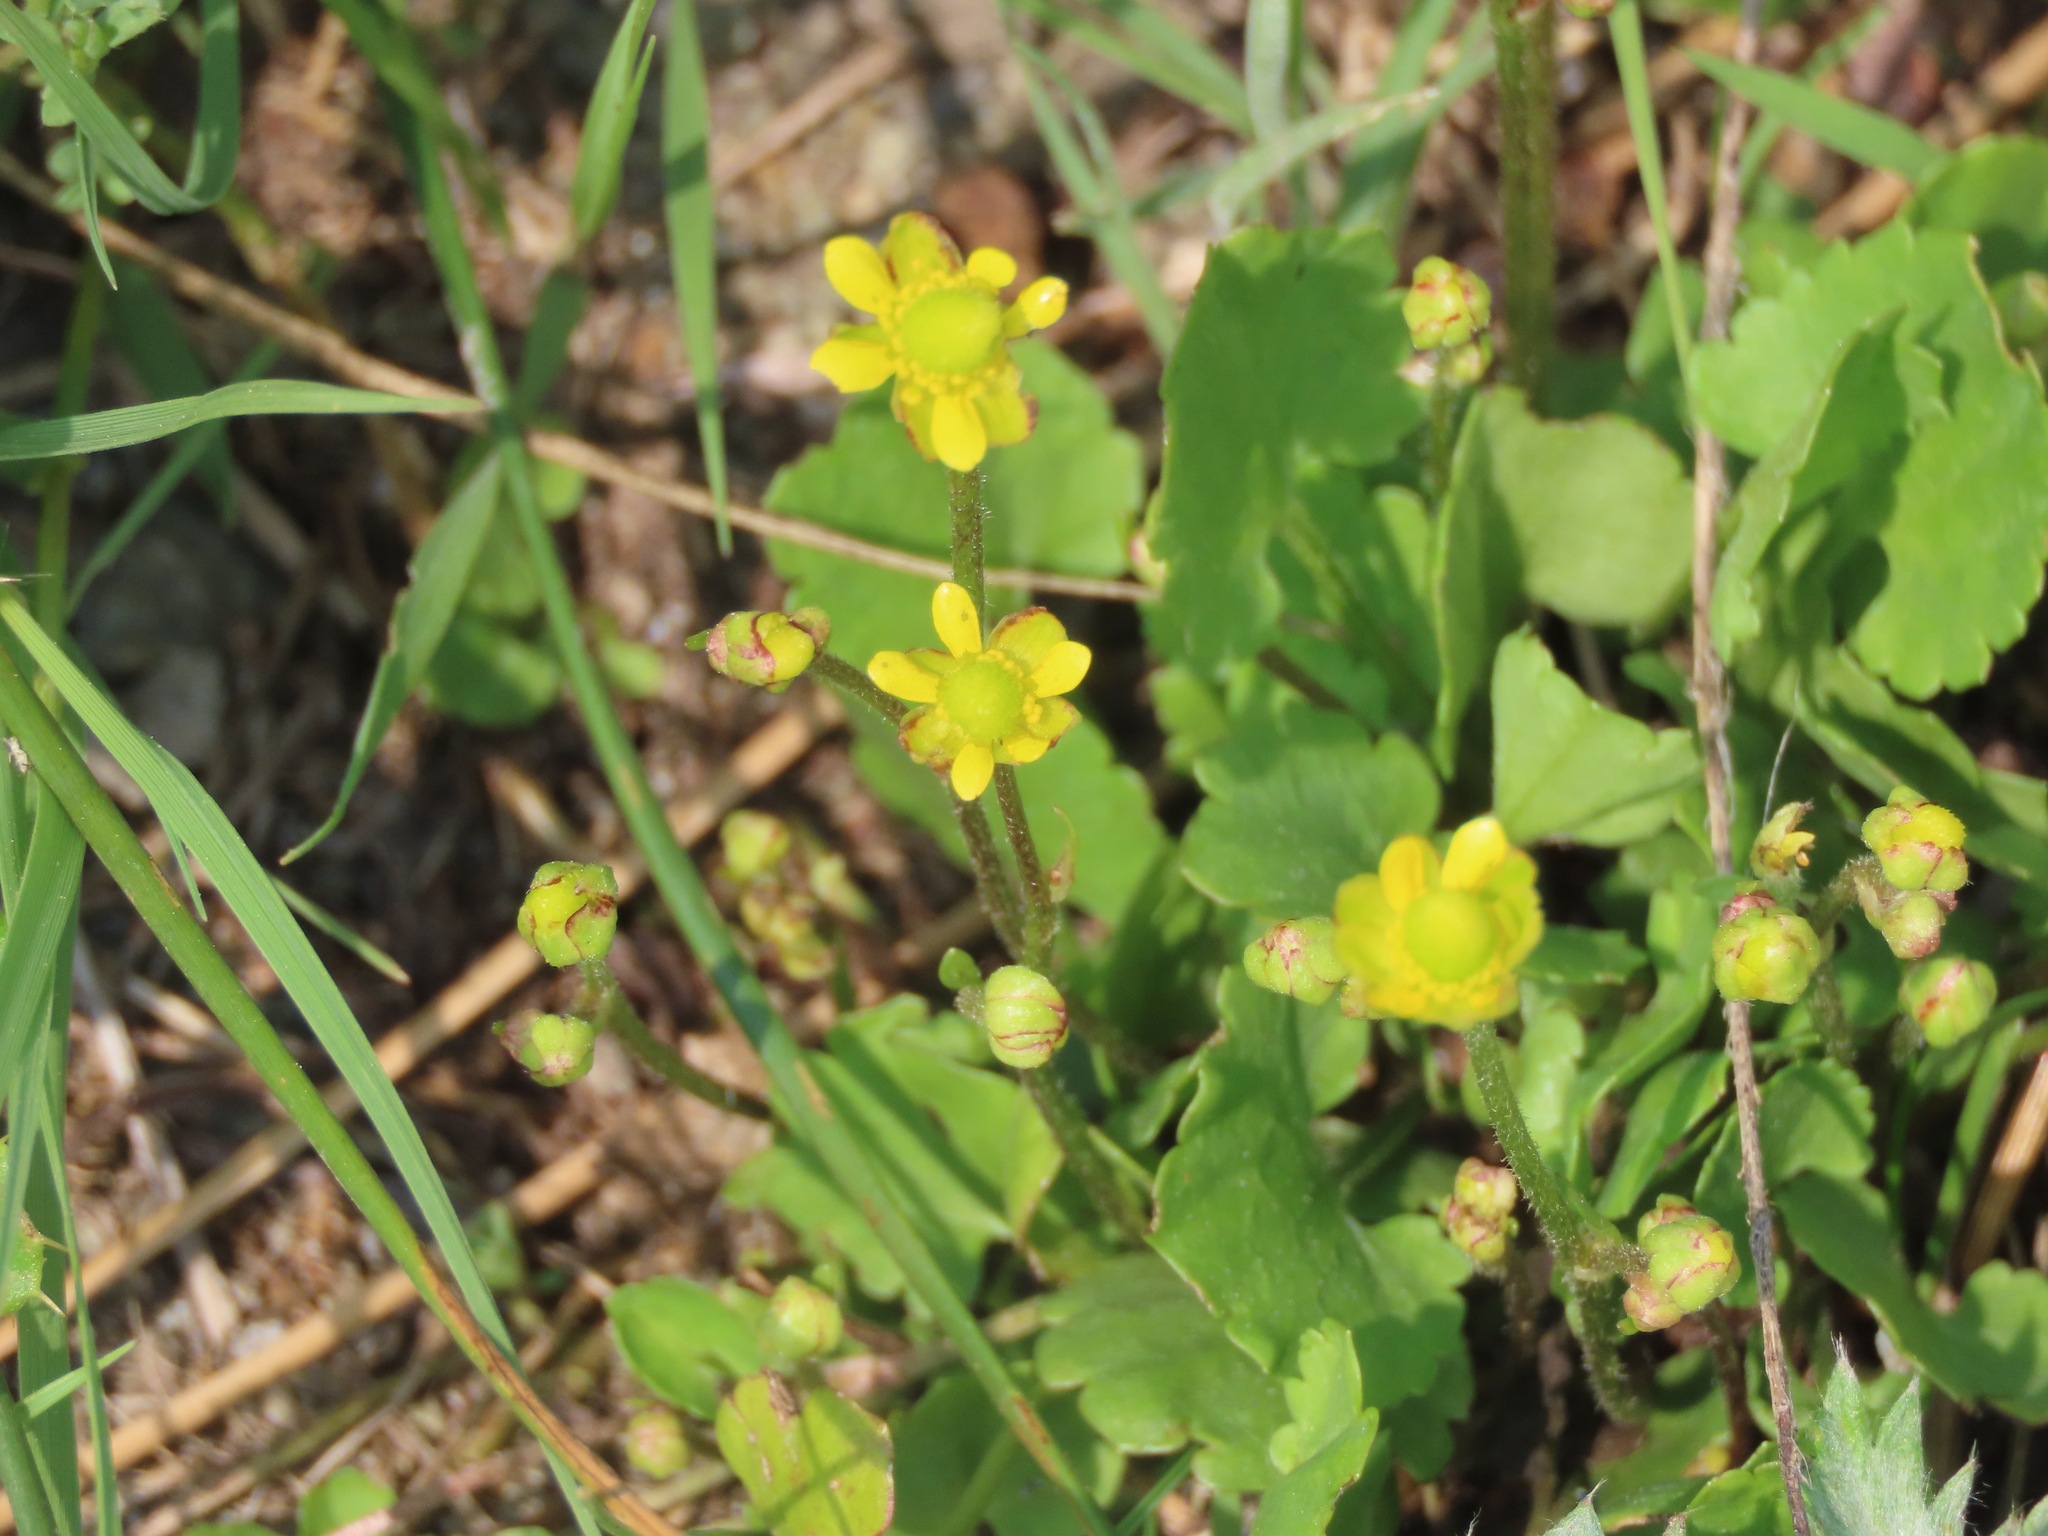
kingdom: Plantae
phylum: Tracheophyta
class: Magnoliopsida
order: Ranunculales
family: Ranunculaceae
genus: Halerpestes
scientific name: Halerpestes cymbalaria
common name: Seaside crowfoot
